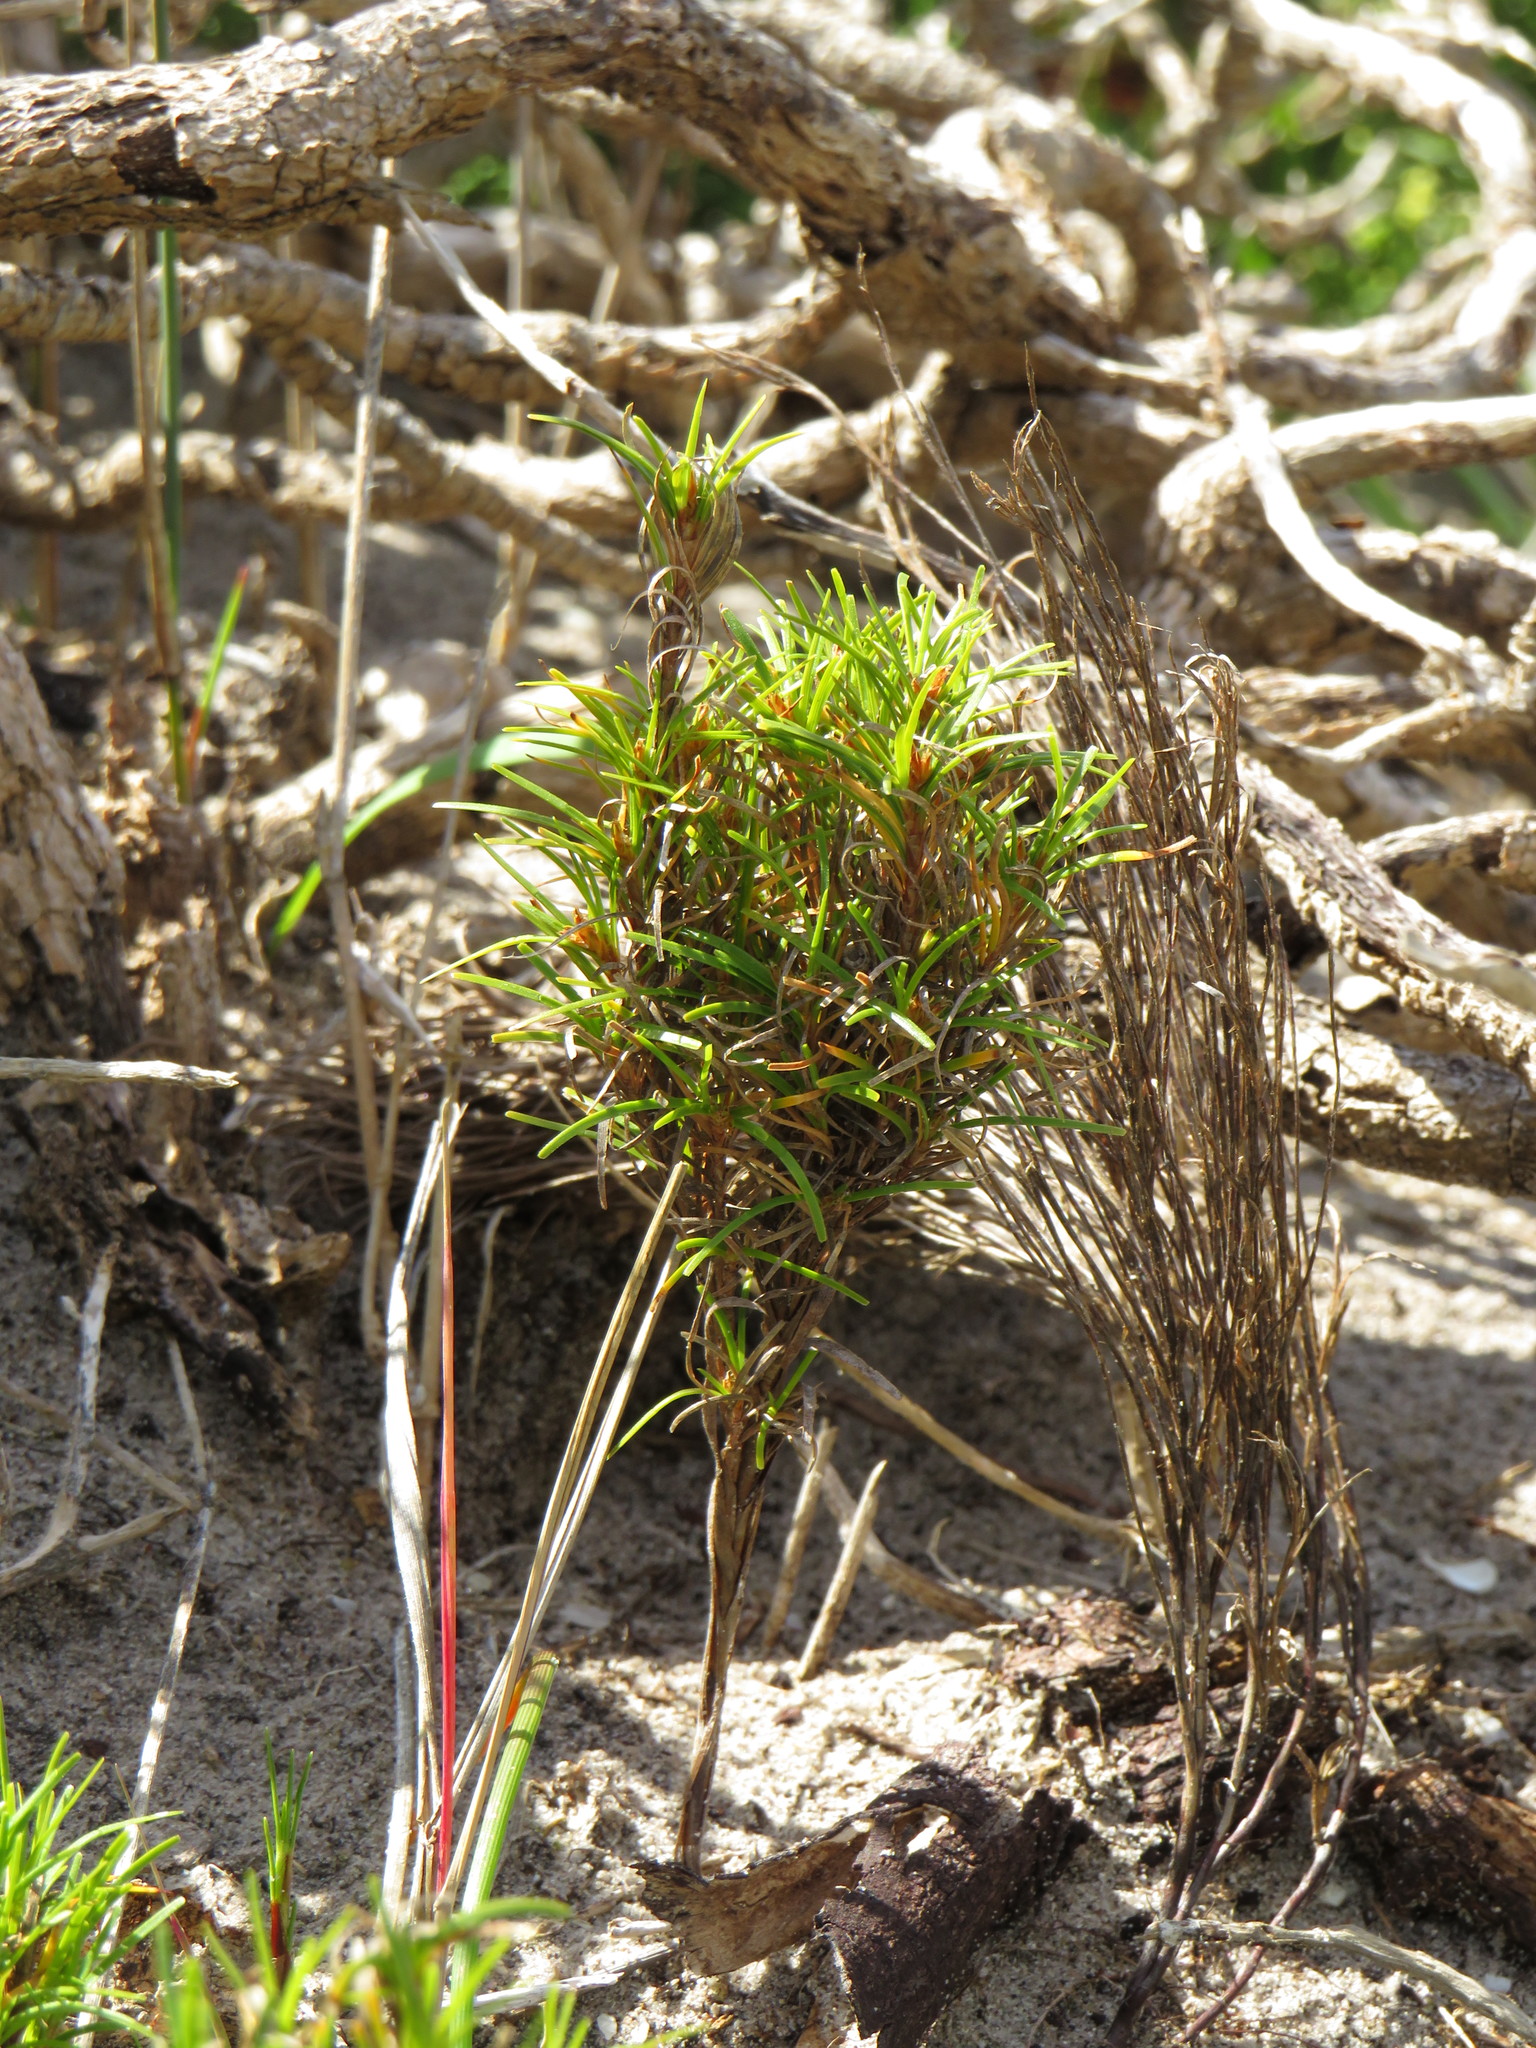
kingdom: Plantae
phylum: Tracheophyta
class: Liliopsida
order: Poales
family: Cyperaceae
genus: Ficinia
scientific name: Ficinia ramosissima
